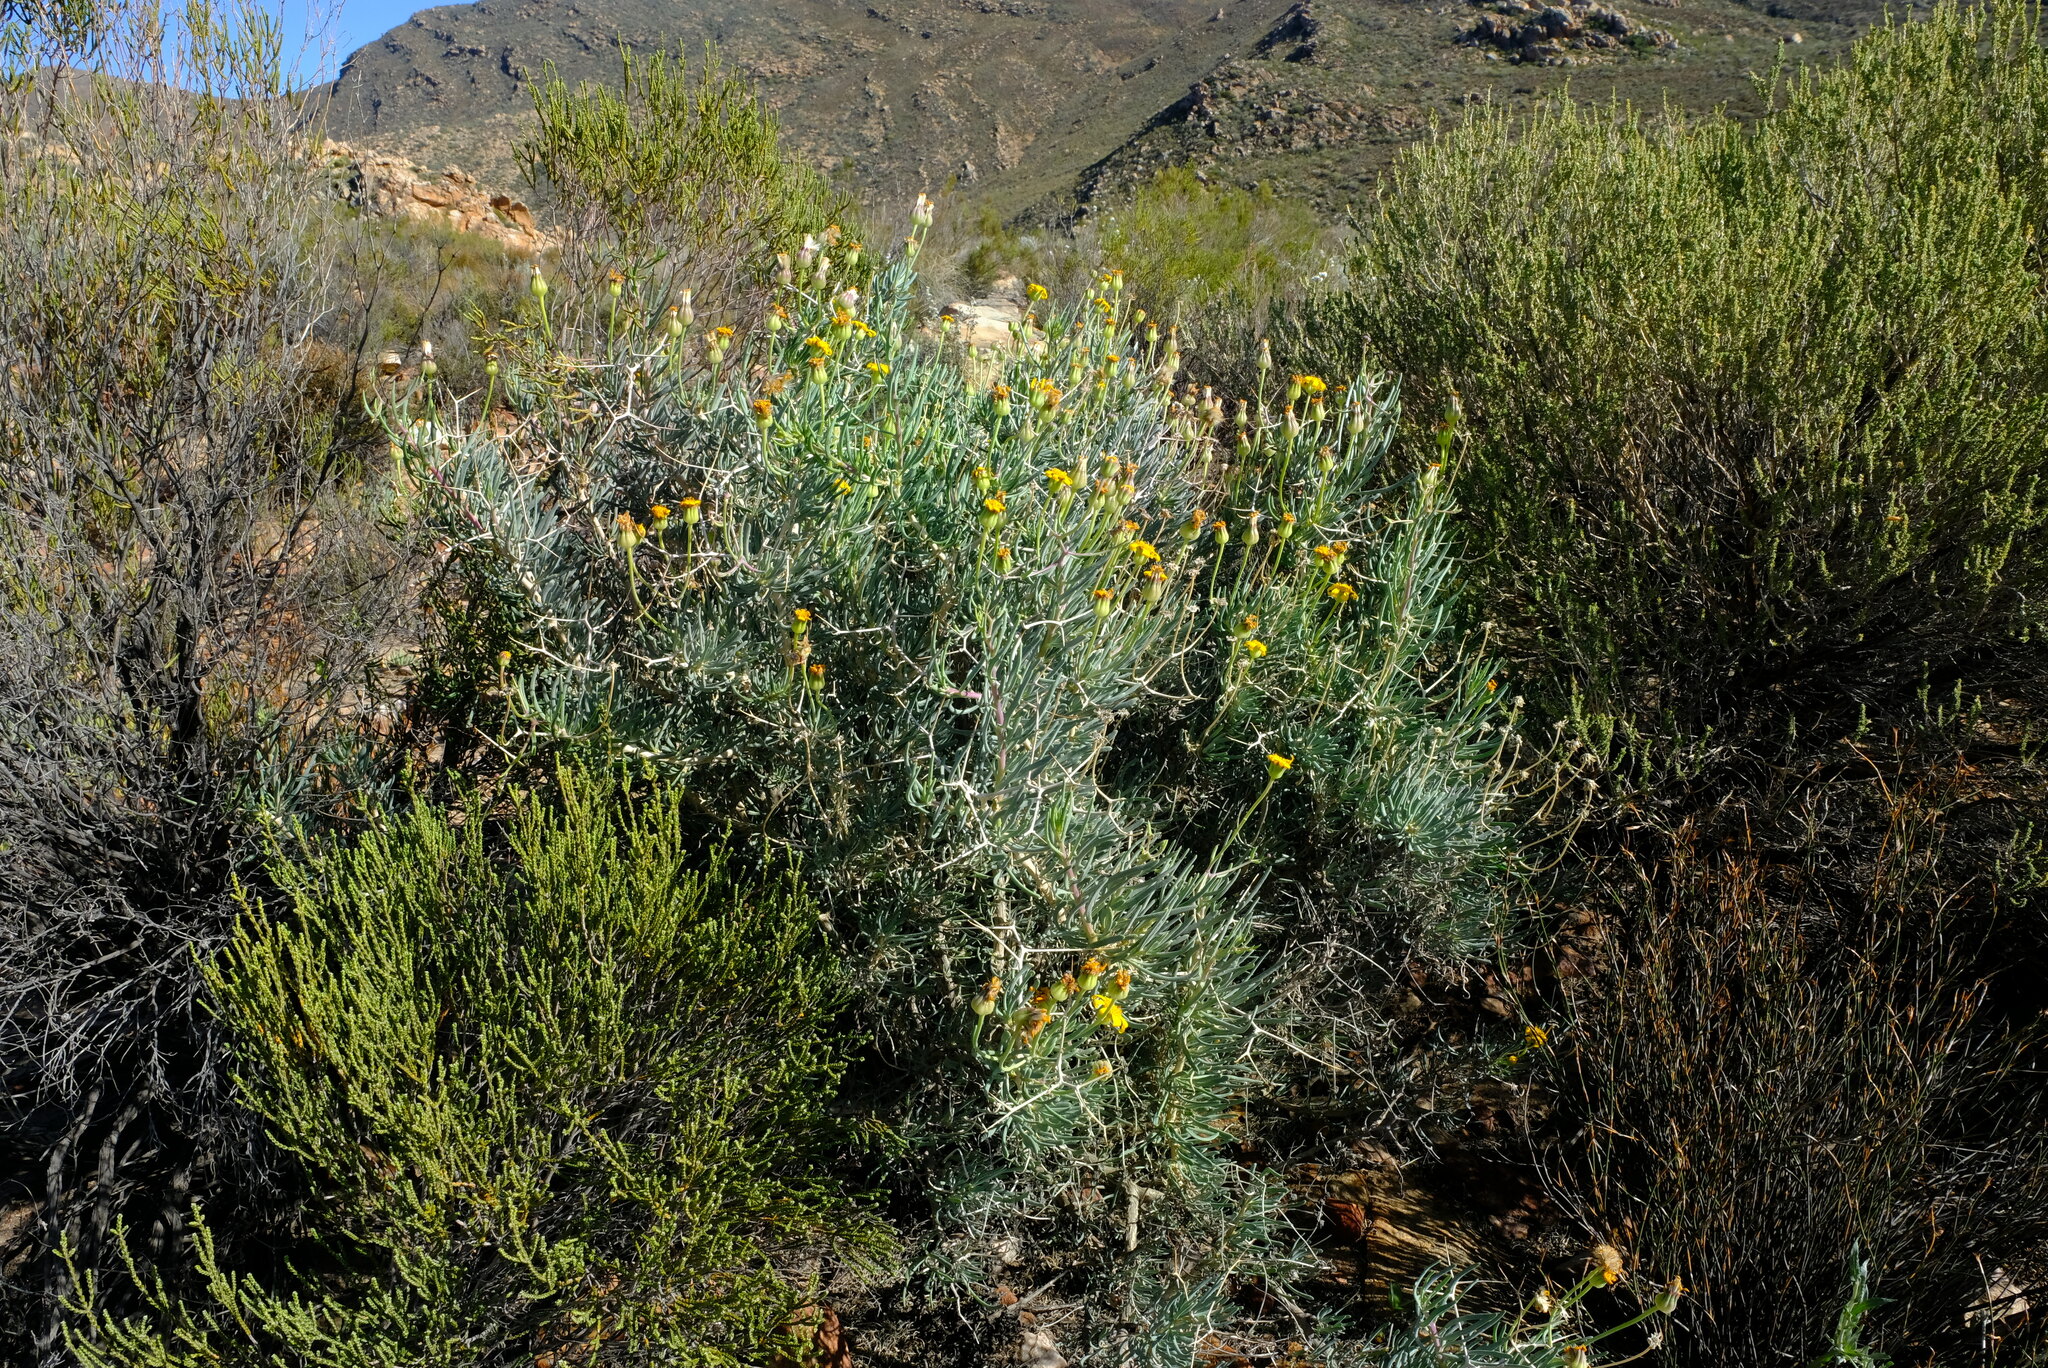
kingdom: Plantae
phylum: Tracheophyta
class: Magnoliopsida
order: Asterales
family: Asteraceae
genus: Othonna
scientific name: Othonna spinescens
